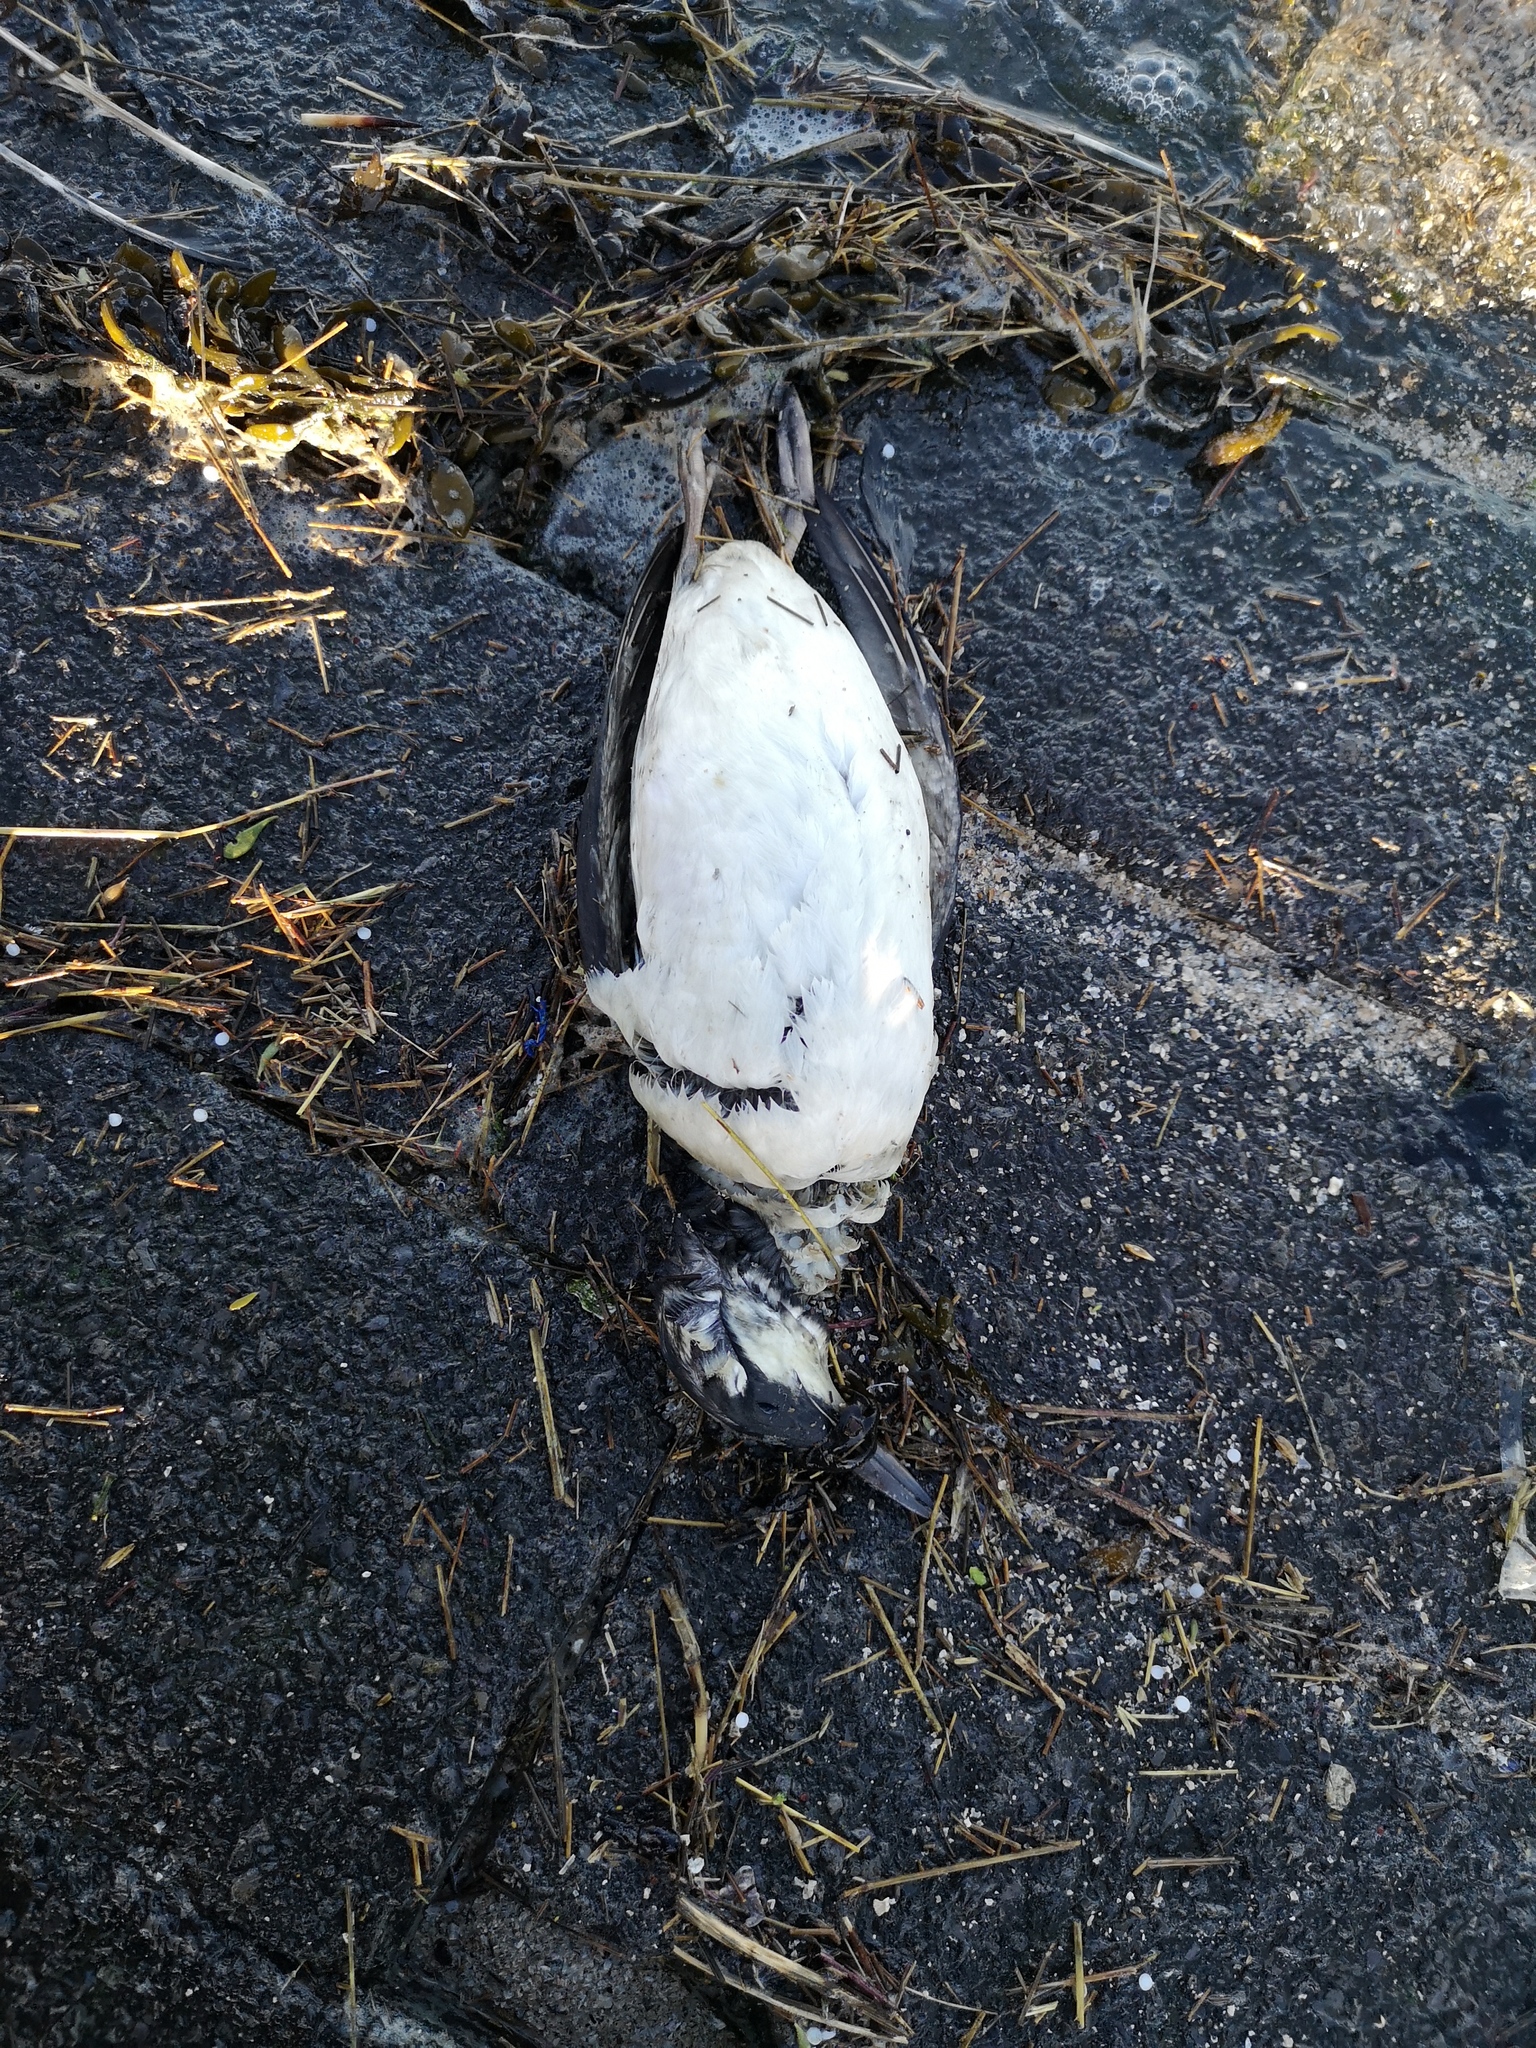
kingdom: Animalia
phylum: Chordata
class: Aves
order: Charadriiformes
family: Alcidae
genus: Uria
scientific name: Uria aalge
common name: Common murre
